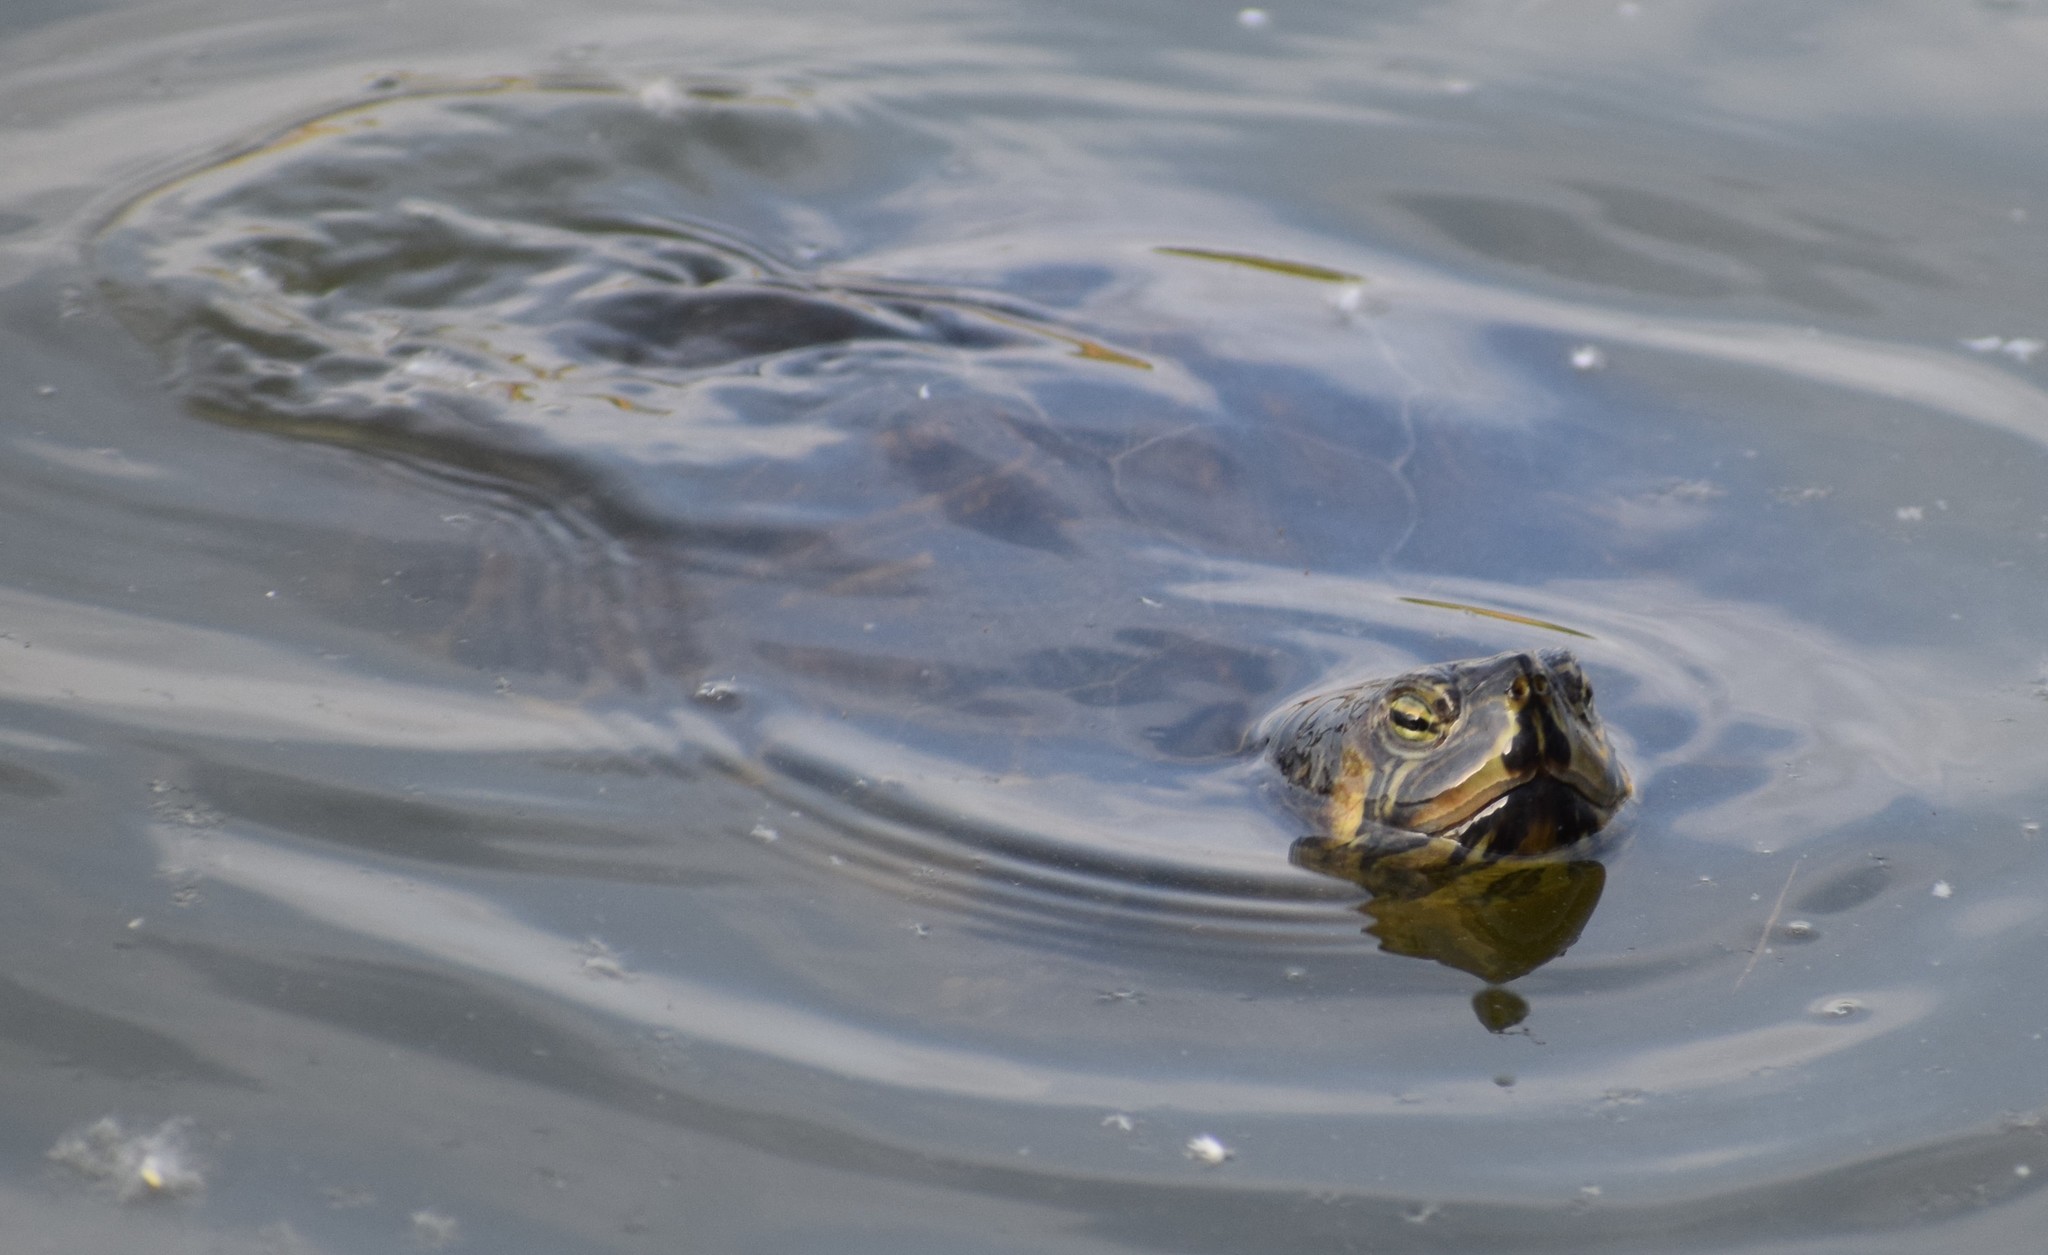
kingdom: Animalia
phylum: Chordata
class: Testudines
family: Emydidae
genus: Trachemys
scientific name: Trachemys scripta
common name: Slider
